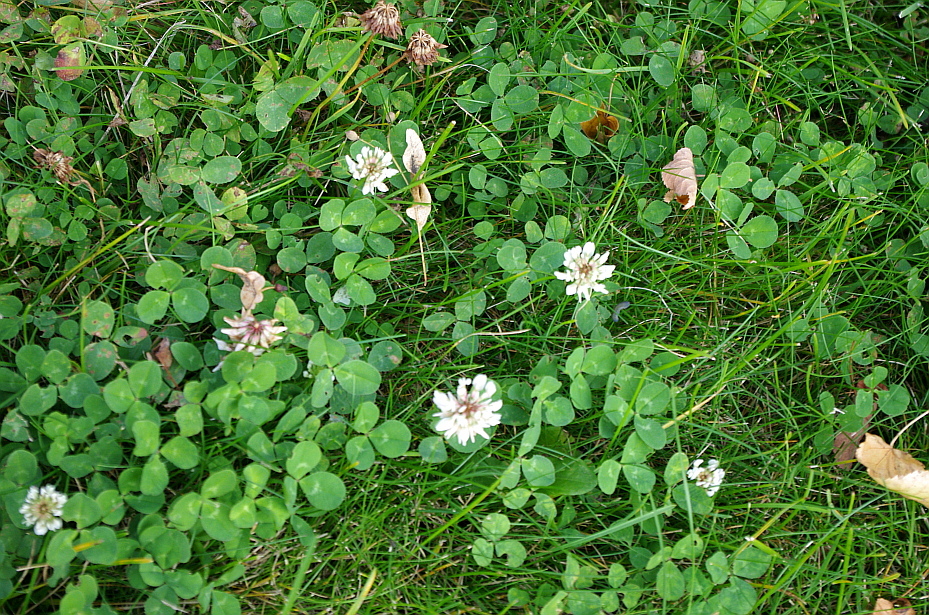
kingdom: Plantae
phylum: Tracheophyta
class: Magnoliopsida
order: Fabales
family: Fabaceae
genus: Trifolium
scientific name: Trifolium repens
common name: White clover
